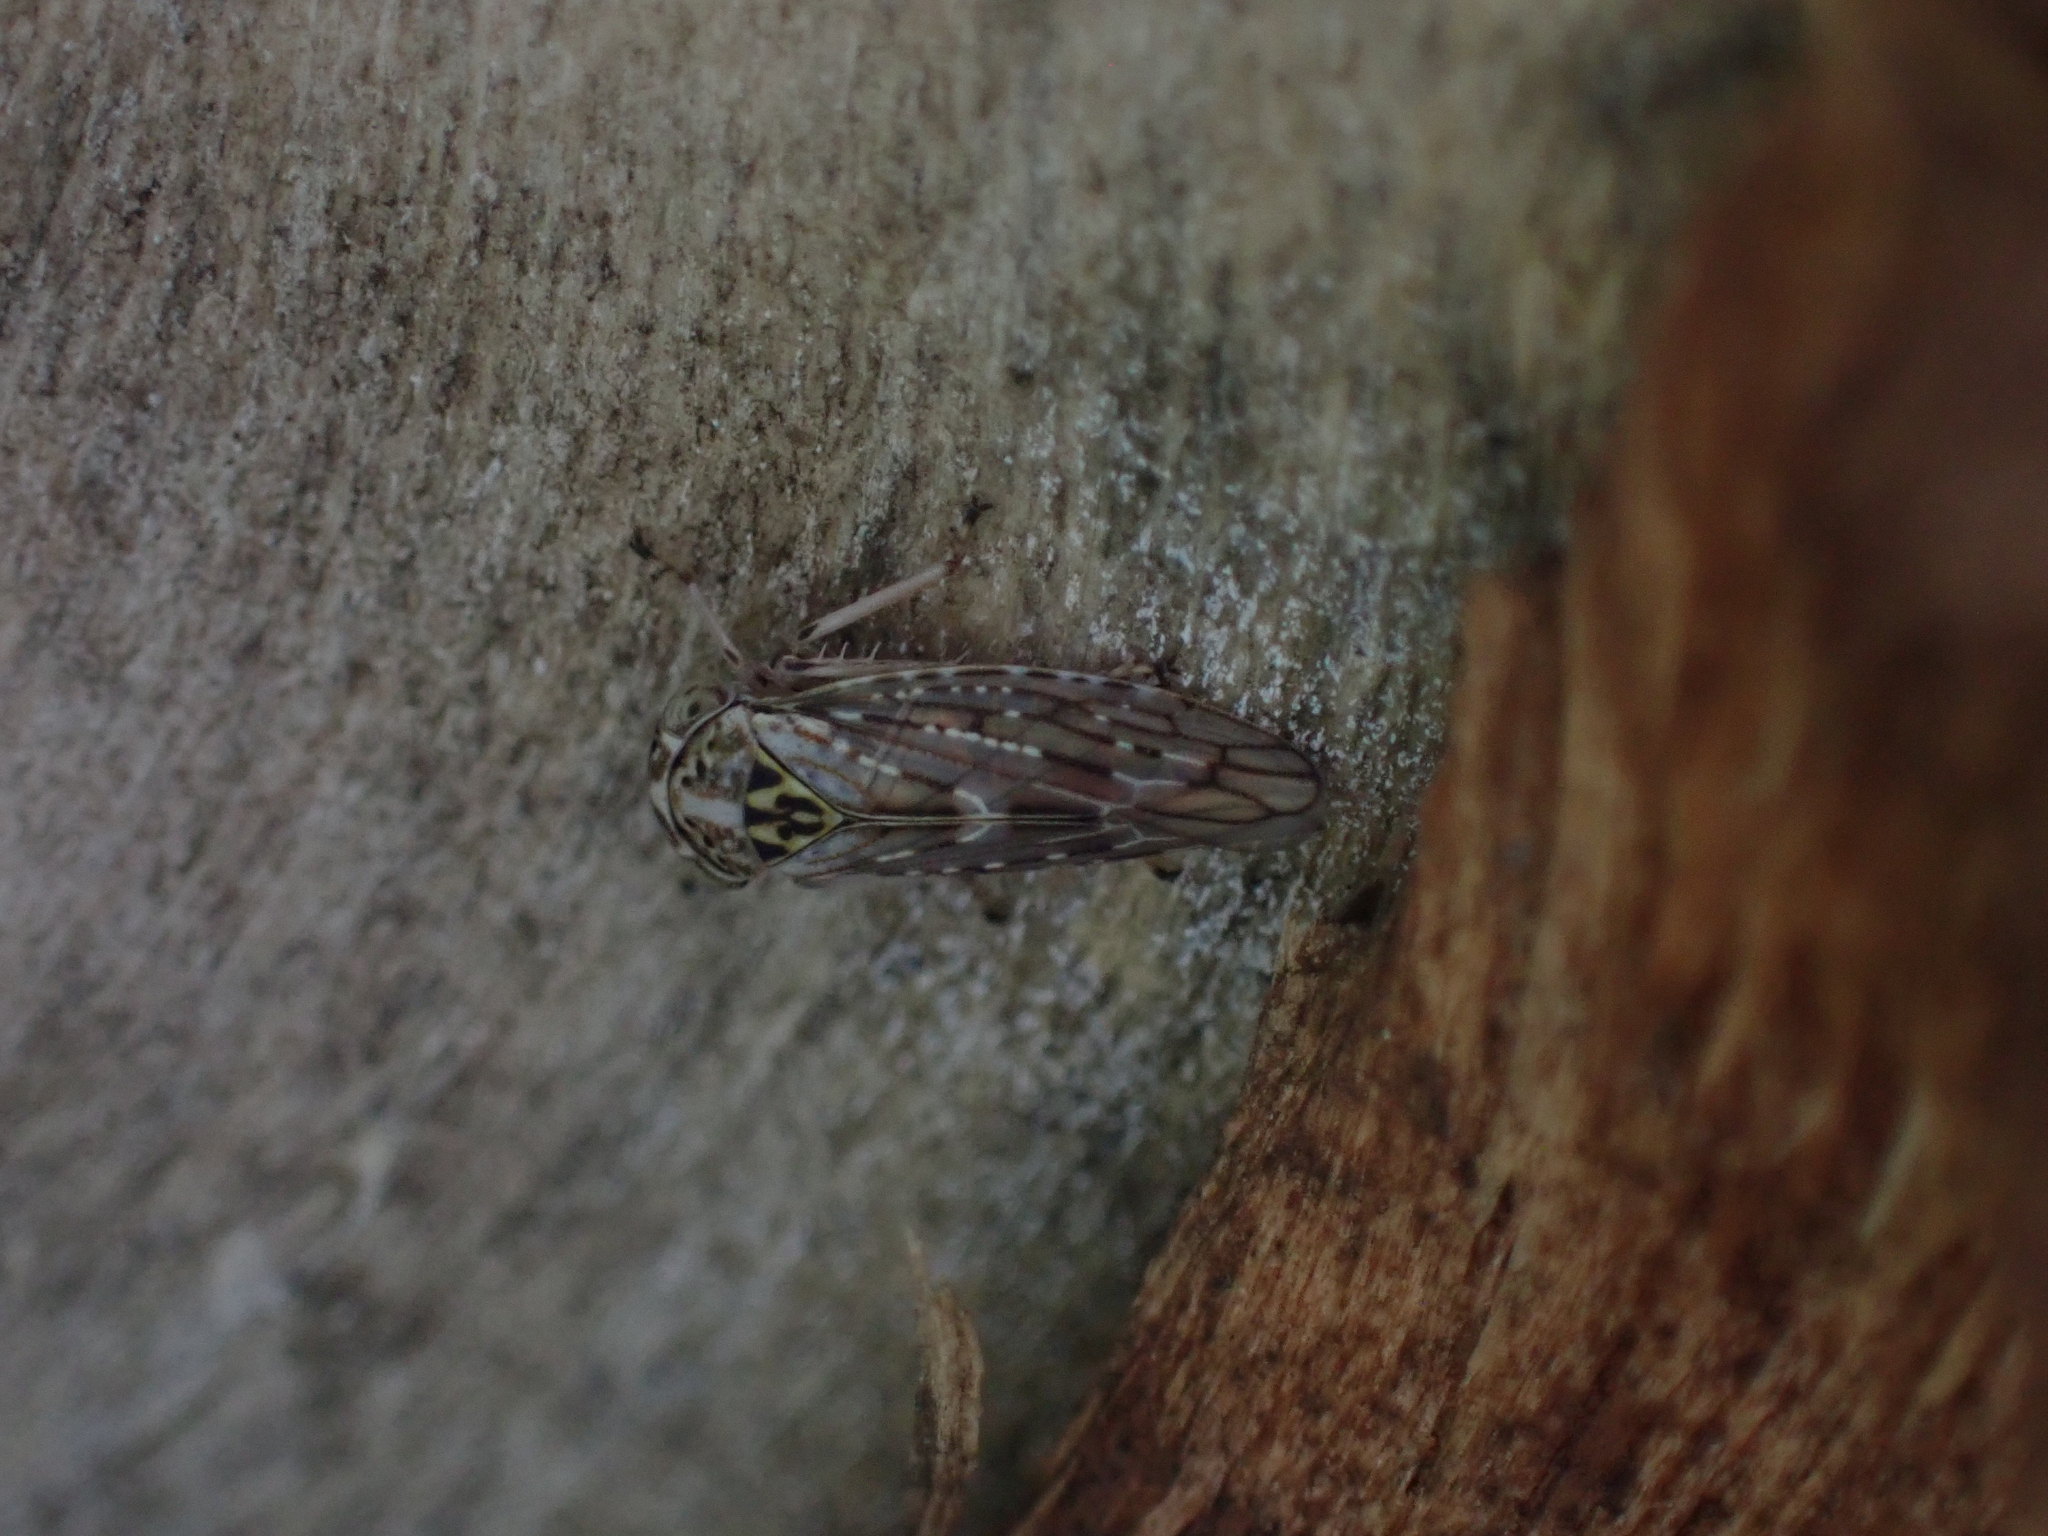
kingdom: Animalia
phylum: Arthropoda
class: Insecta
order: Hemiptera
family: Cicadellidae
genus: Idiocerus
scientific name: Idiocerus herrichii
